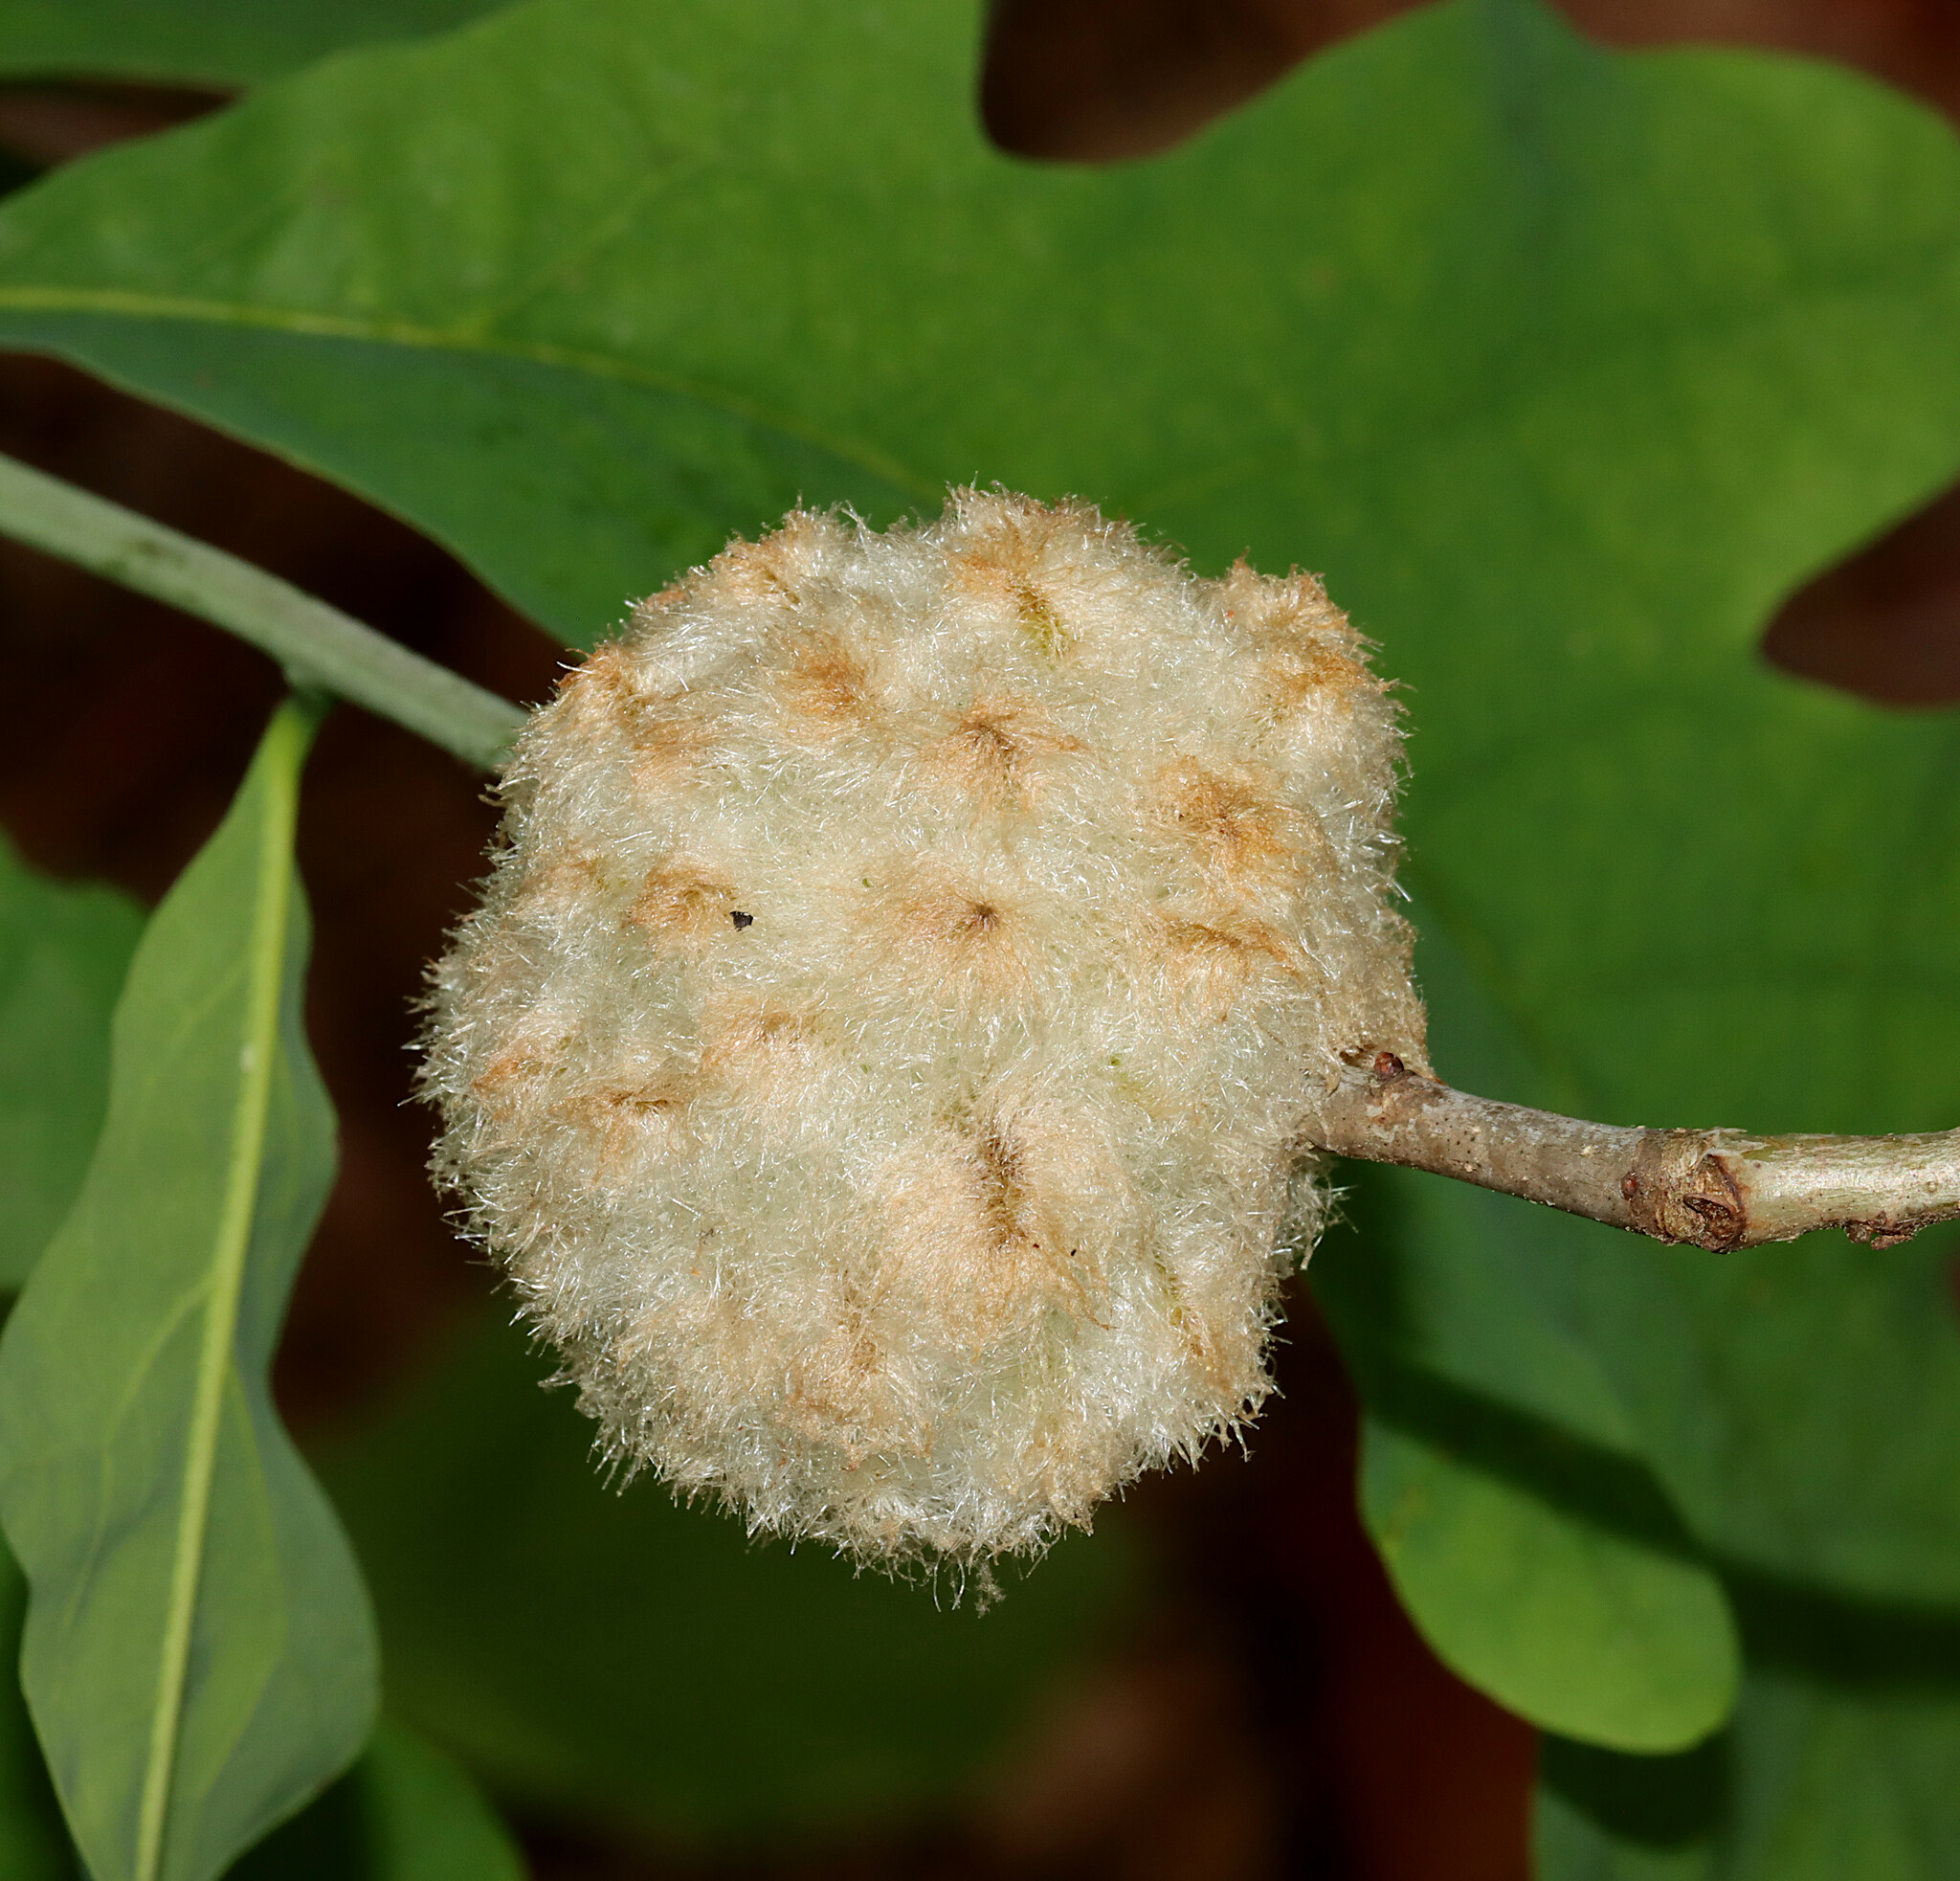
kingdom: Animalia
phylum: Arthropoda
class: Insecta
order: Hymenoptera
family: Cynipidae
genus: Callirhytis
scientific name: Callirhytis
